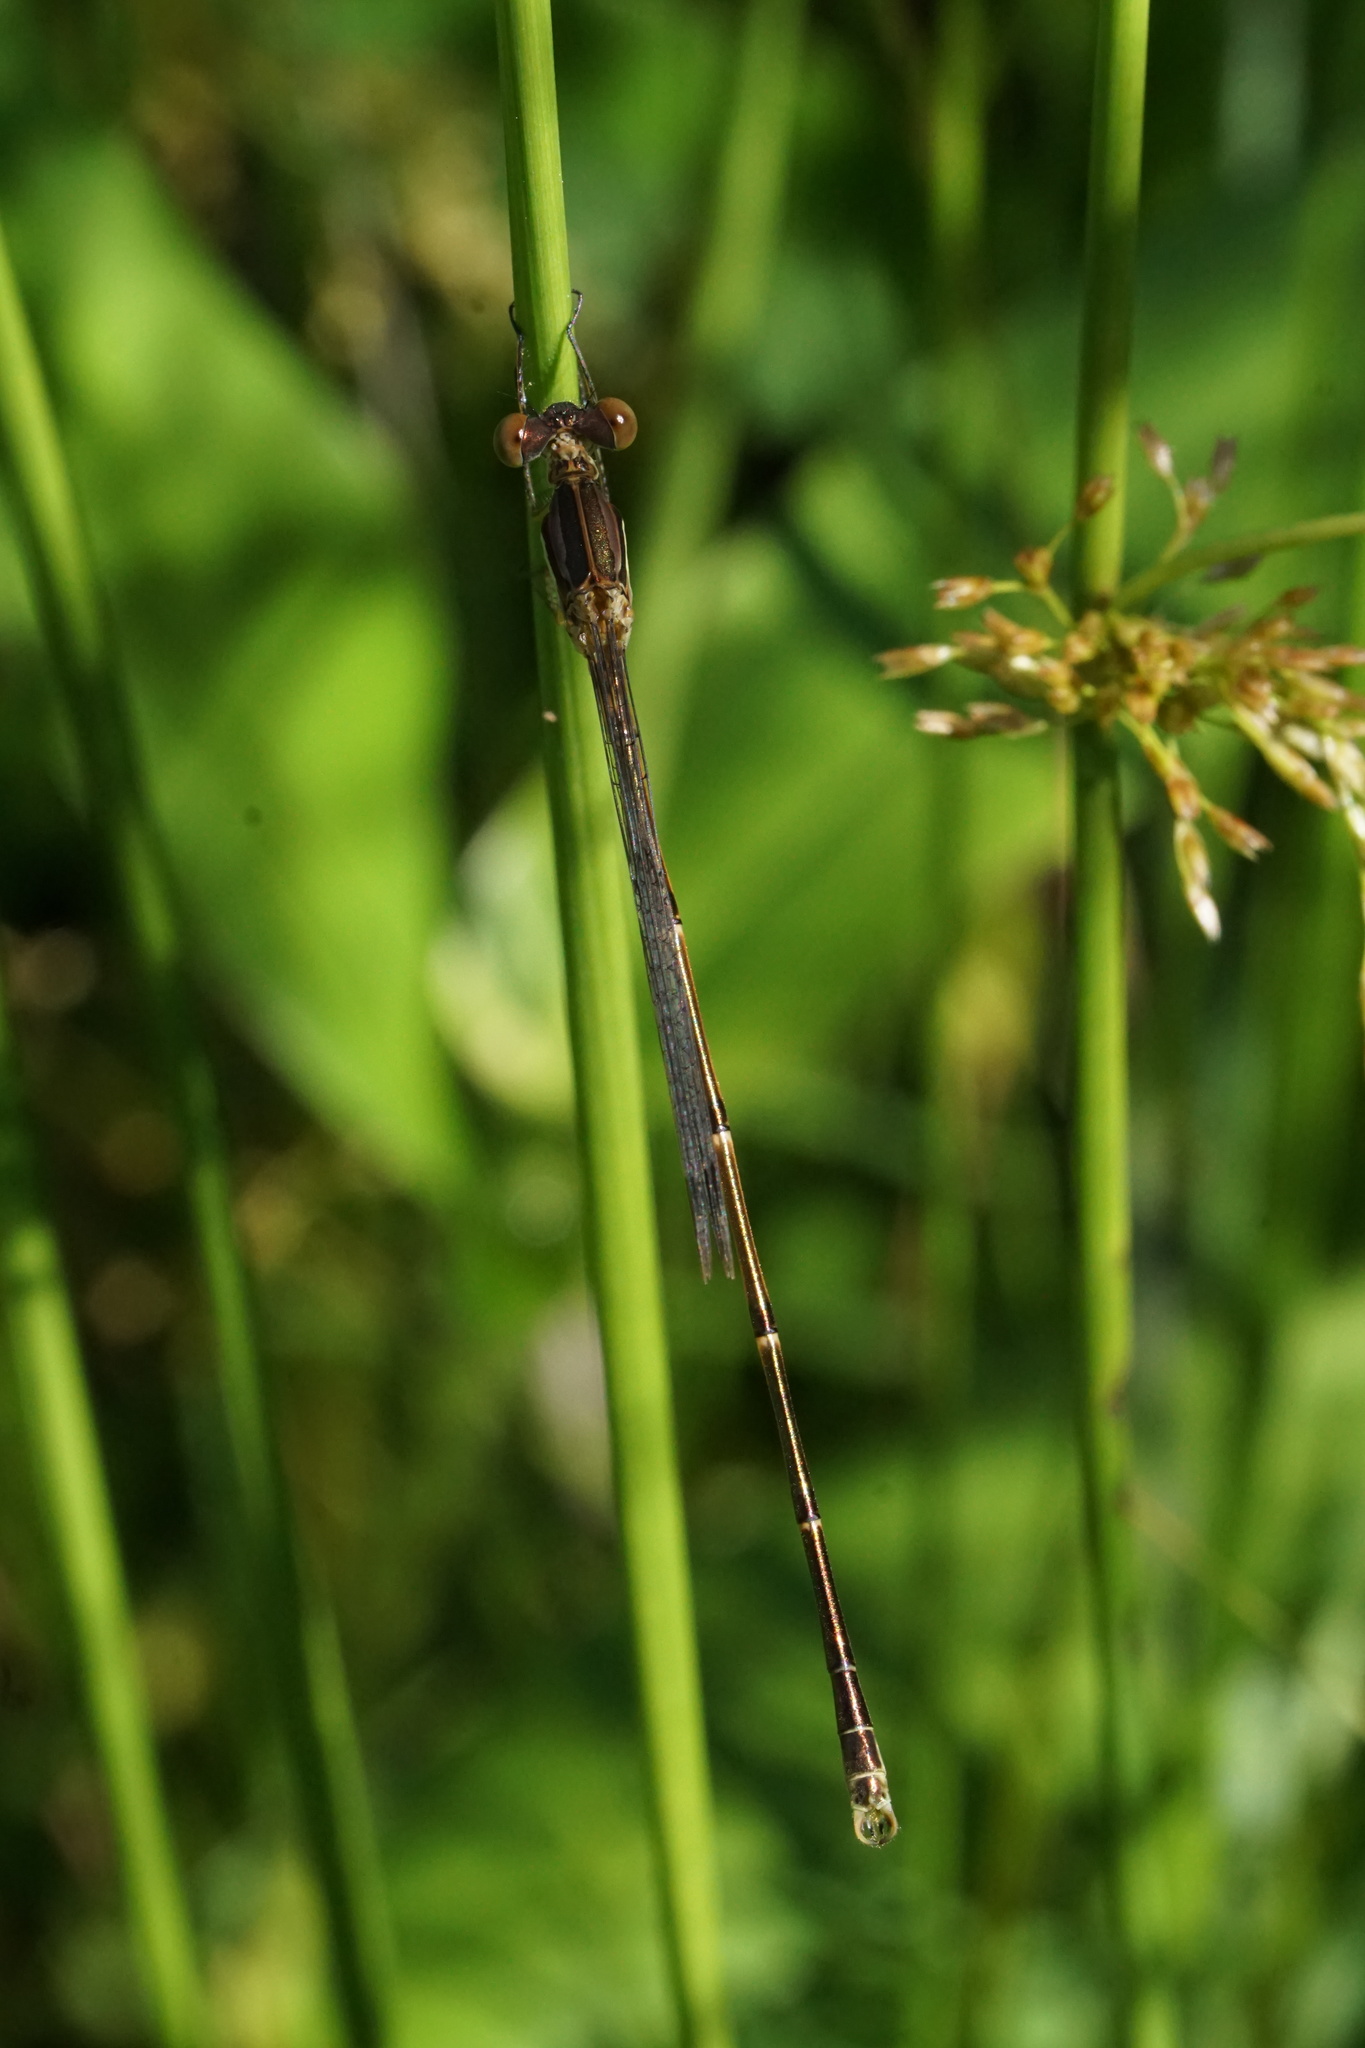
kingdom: Animalia
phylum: Arthropoda
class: Insecta
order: Odonata
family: Lestidae
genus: Lestes
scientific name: Lestes rectangularis
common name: Slender spreadwing
